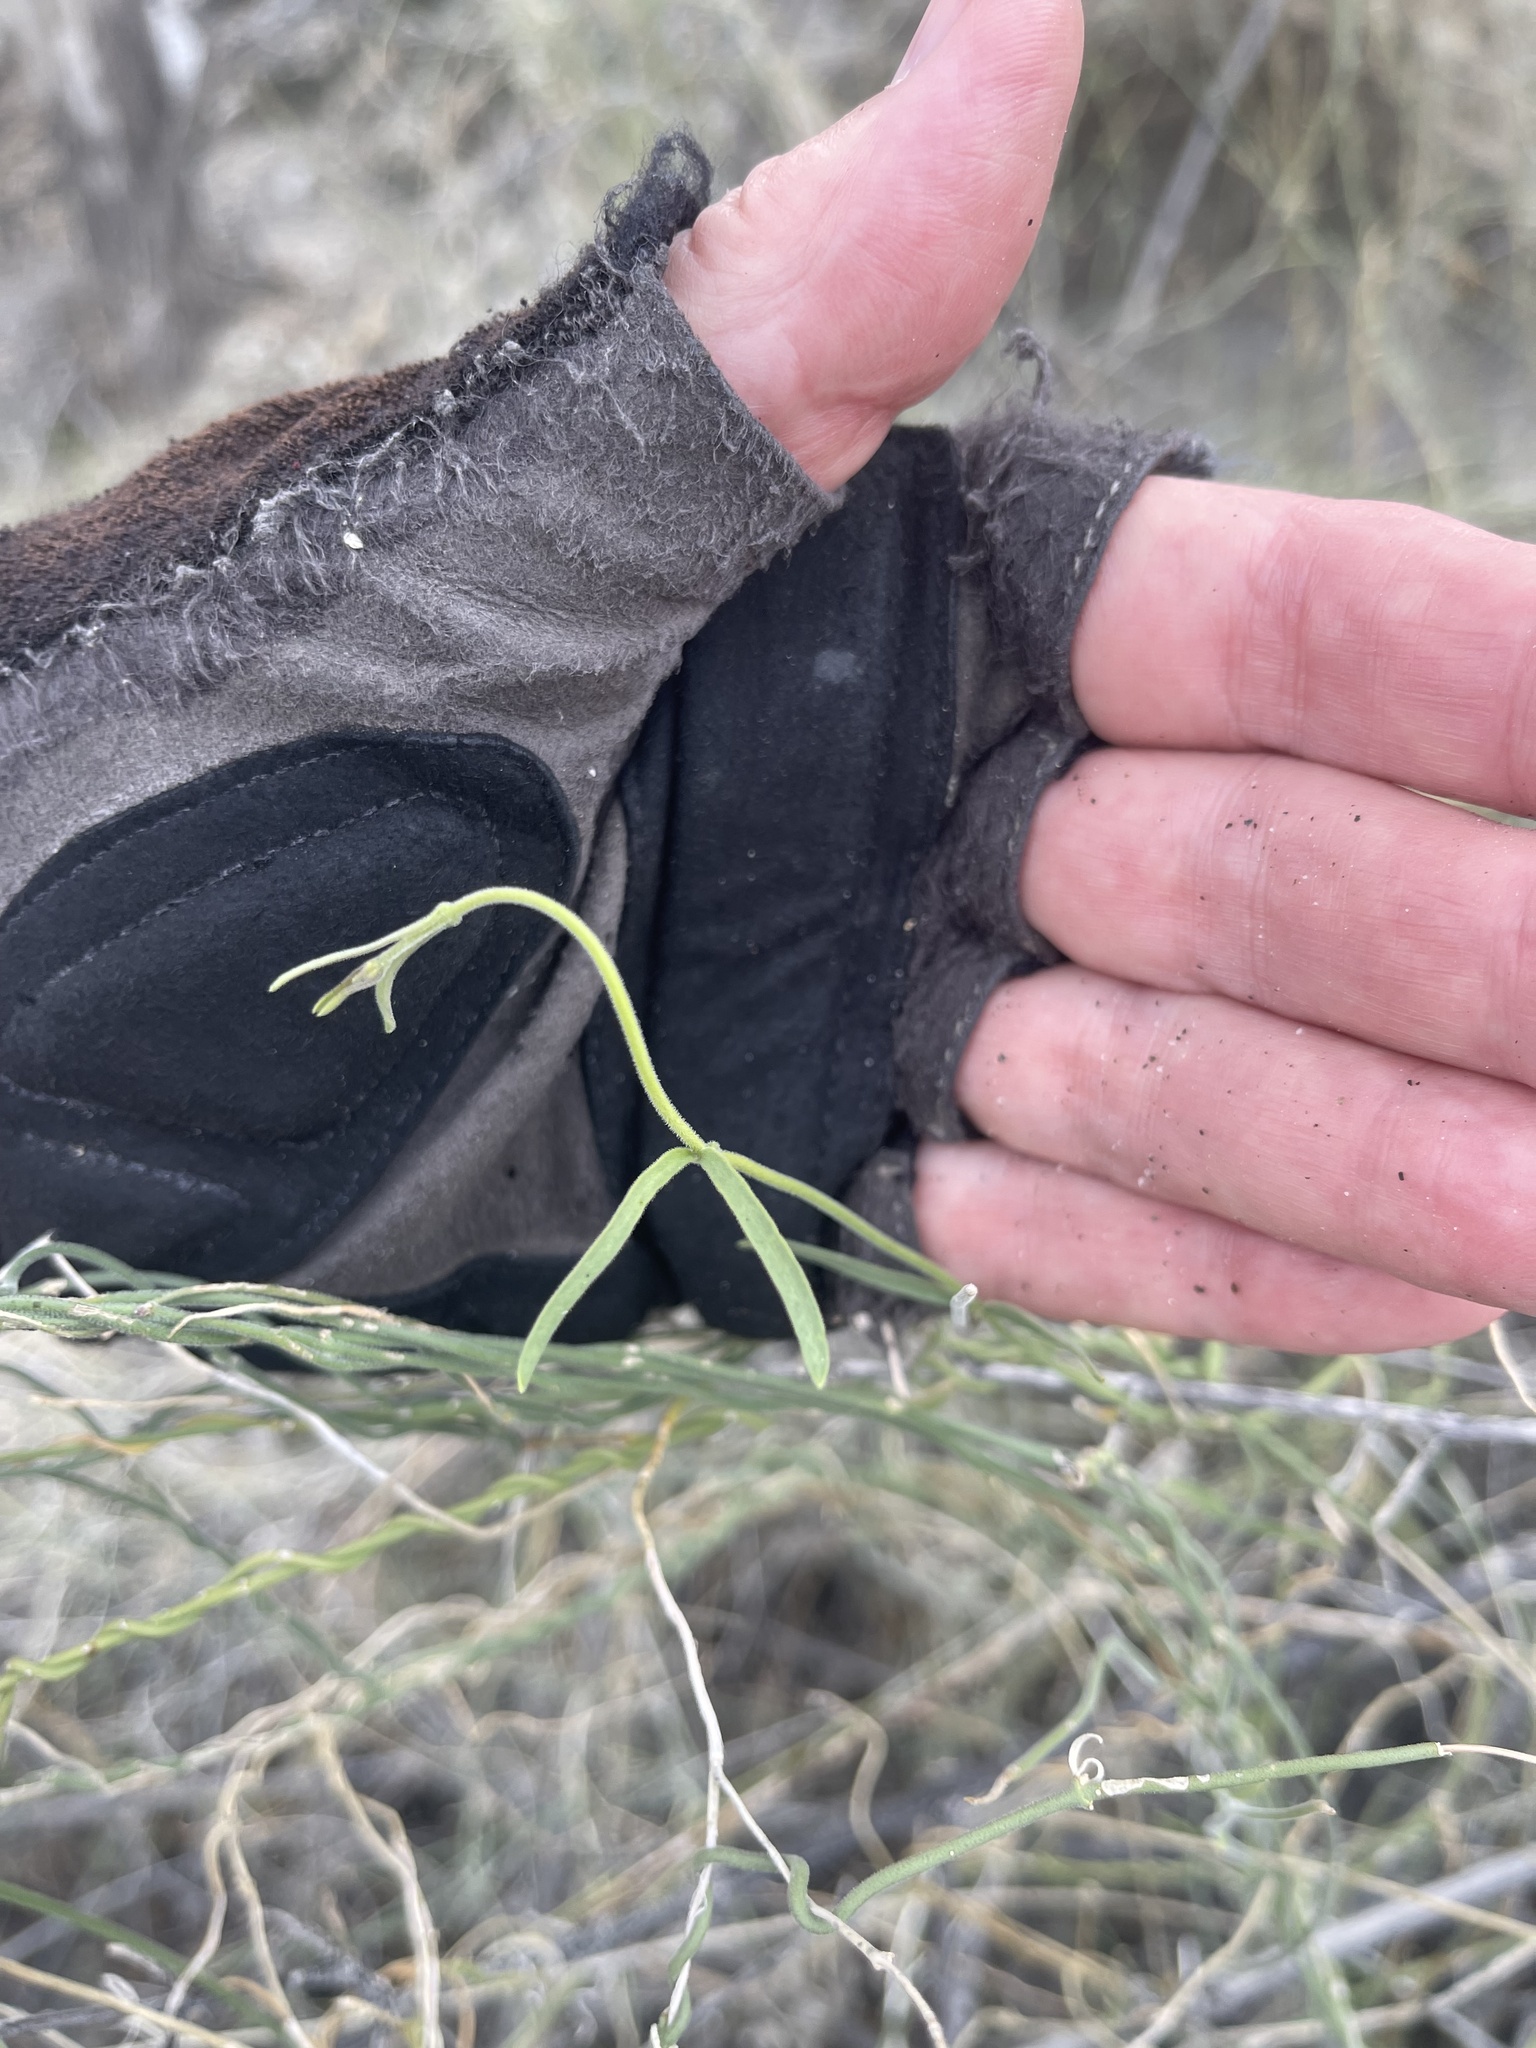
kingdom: Plantae
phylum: Tracheophyta
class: Magnoliopsida
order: Gentianales
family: Apocynaceae
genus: Funastrum
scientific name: Funastrum hirtellum
